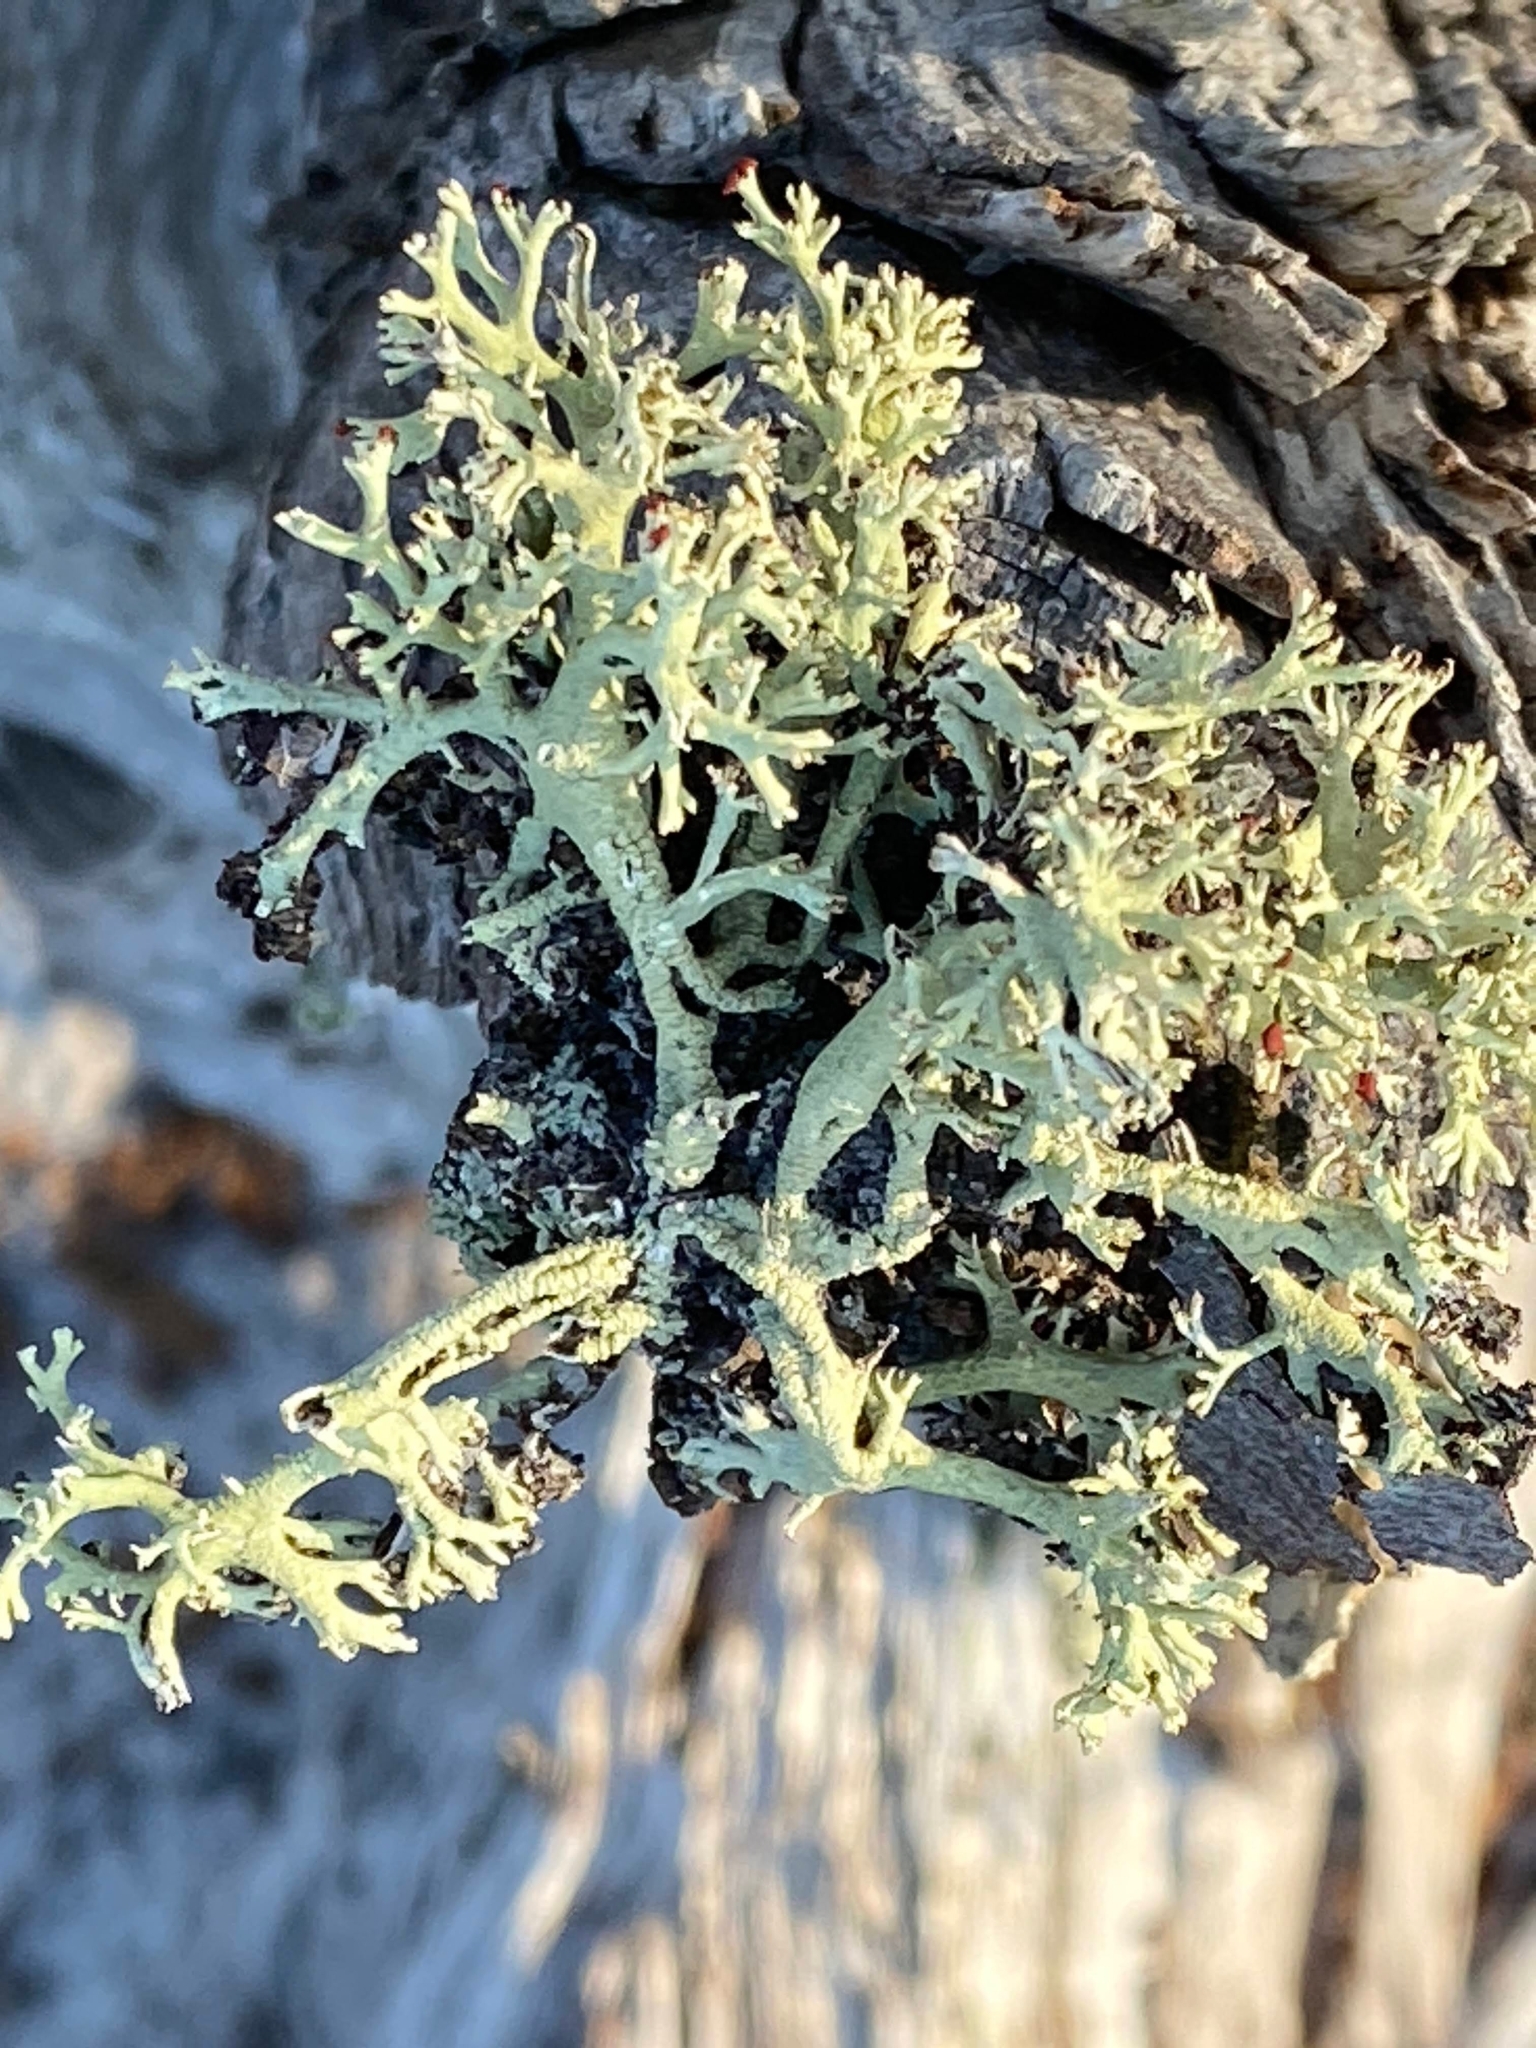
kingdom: Fungi
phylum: Ascomycota
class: Lecanoromycetes
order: Lecanorales
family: Cladoniaceae
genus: Cladonia
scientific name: Cladonia leporina
